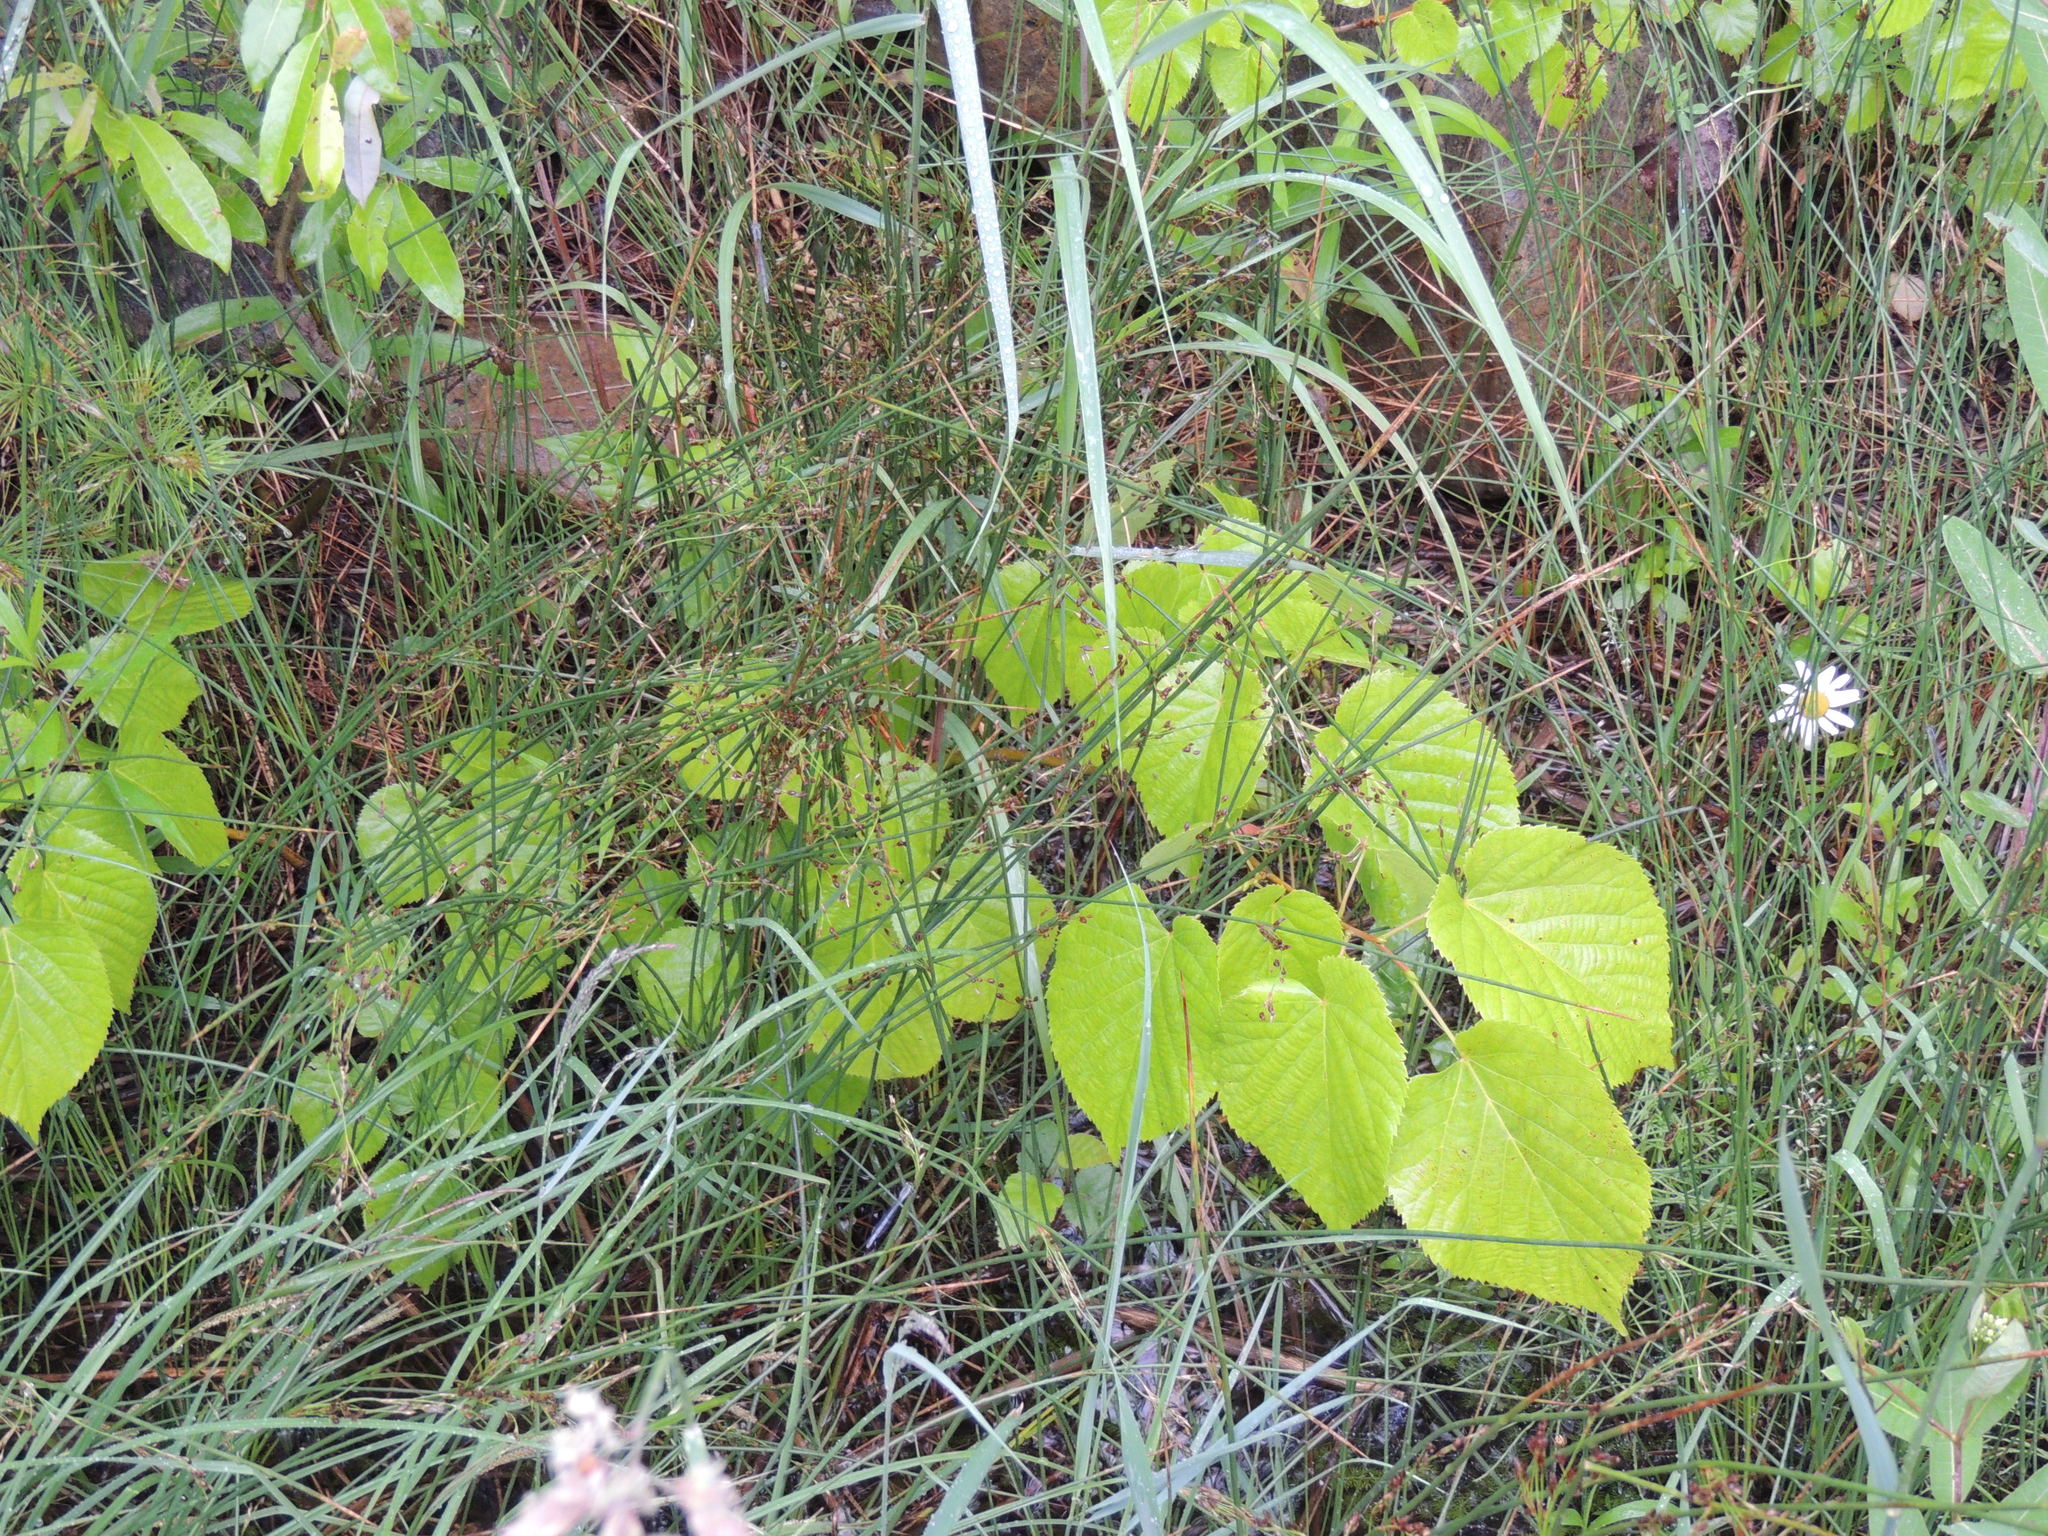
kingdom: Plantae
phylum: Tracheophyta
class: Magnoliopsida
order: Malvales
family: Malvaceae
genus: Tilia
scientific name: Tilia americana
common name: Basswood
